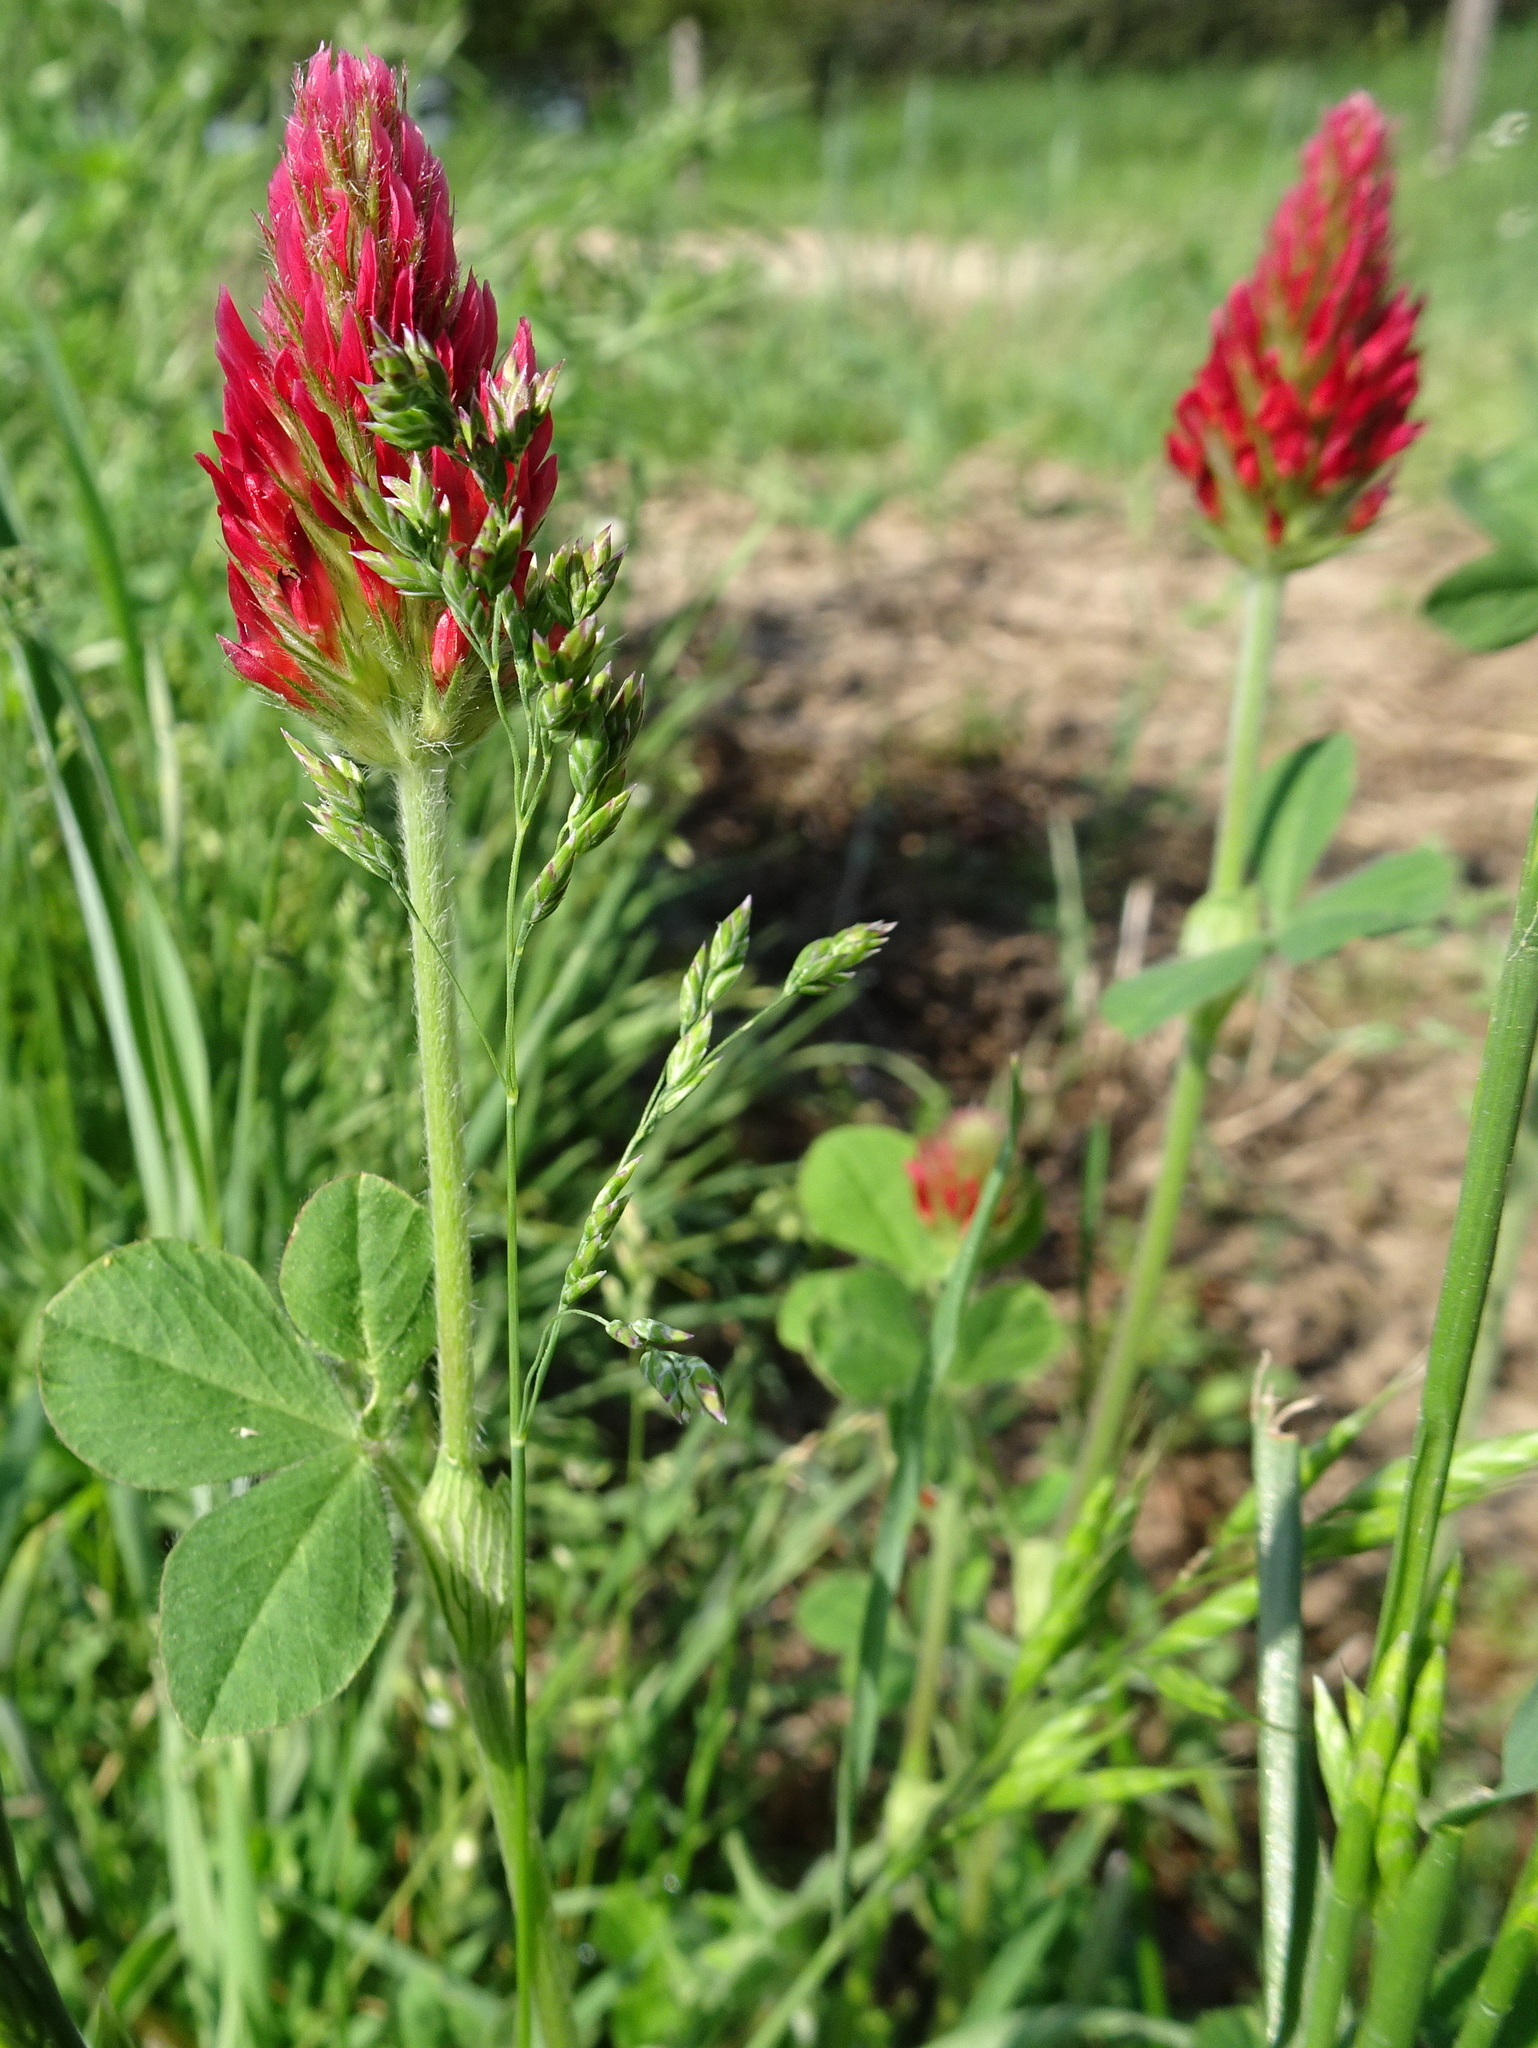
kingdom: Plantae
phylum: Tracheophyta
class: Magnoliopsida
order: Fabales
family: Fabaceae
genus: Trifolium
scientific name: Trifolium incarnatum
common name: Crimson clover
